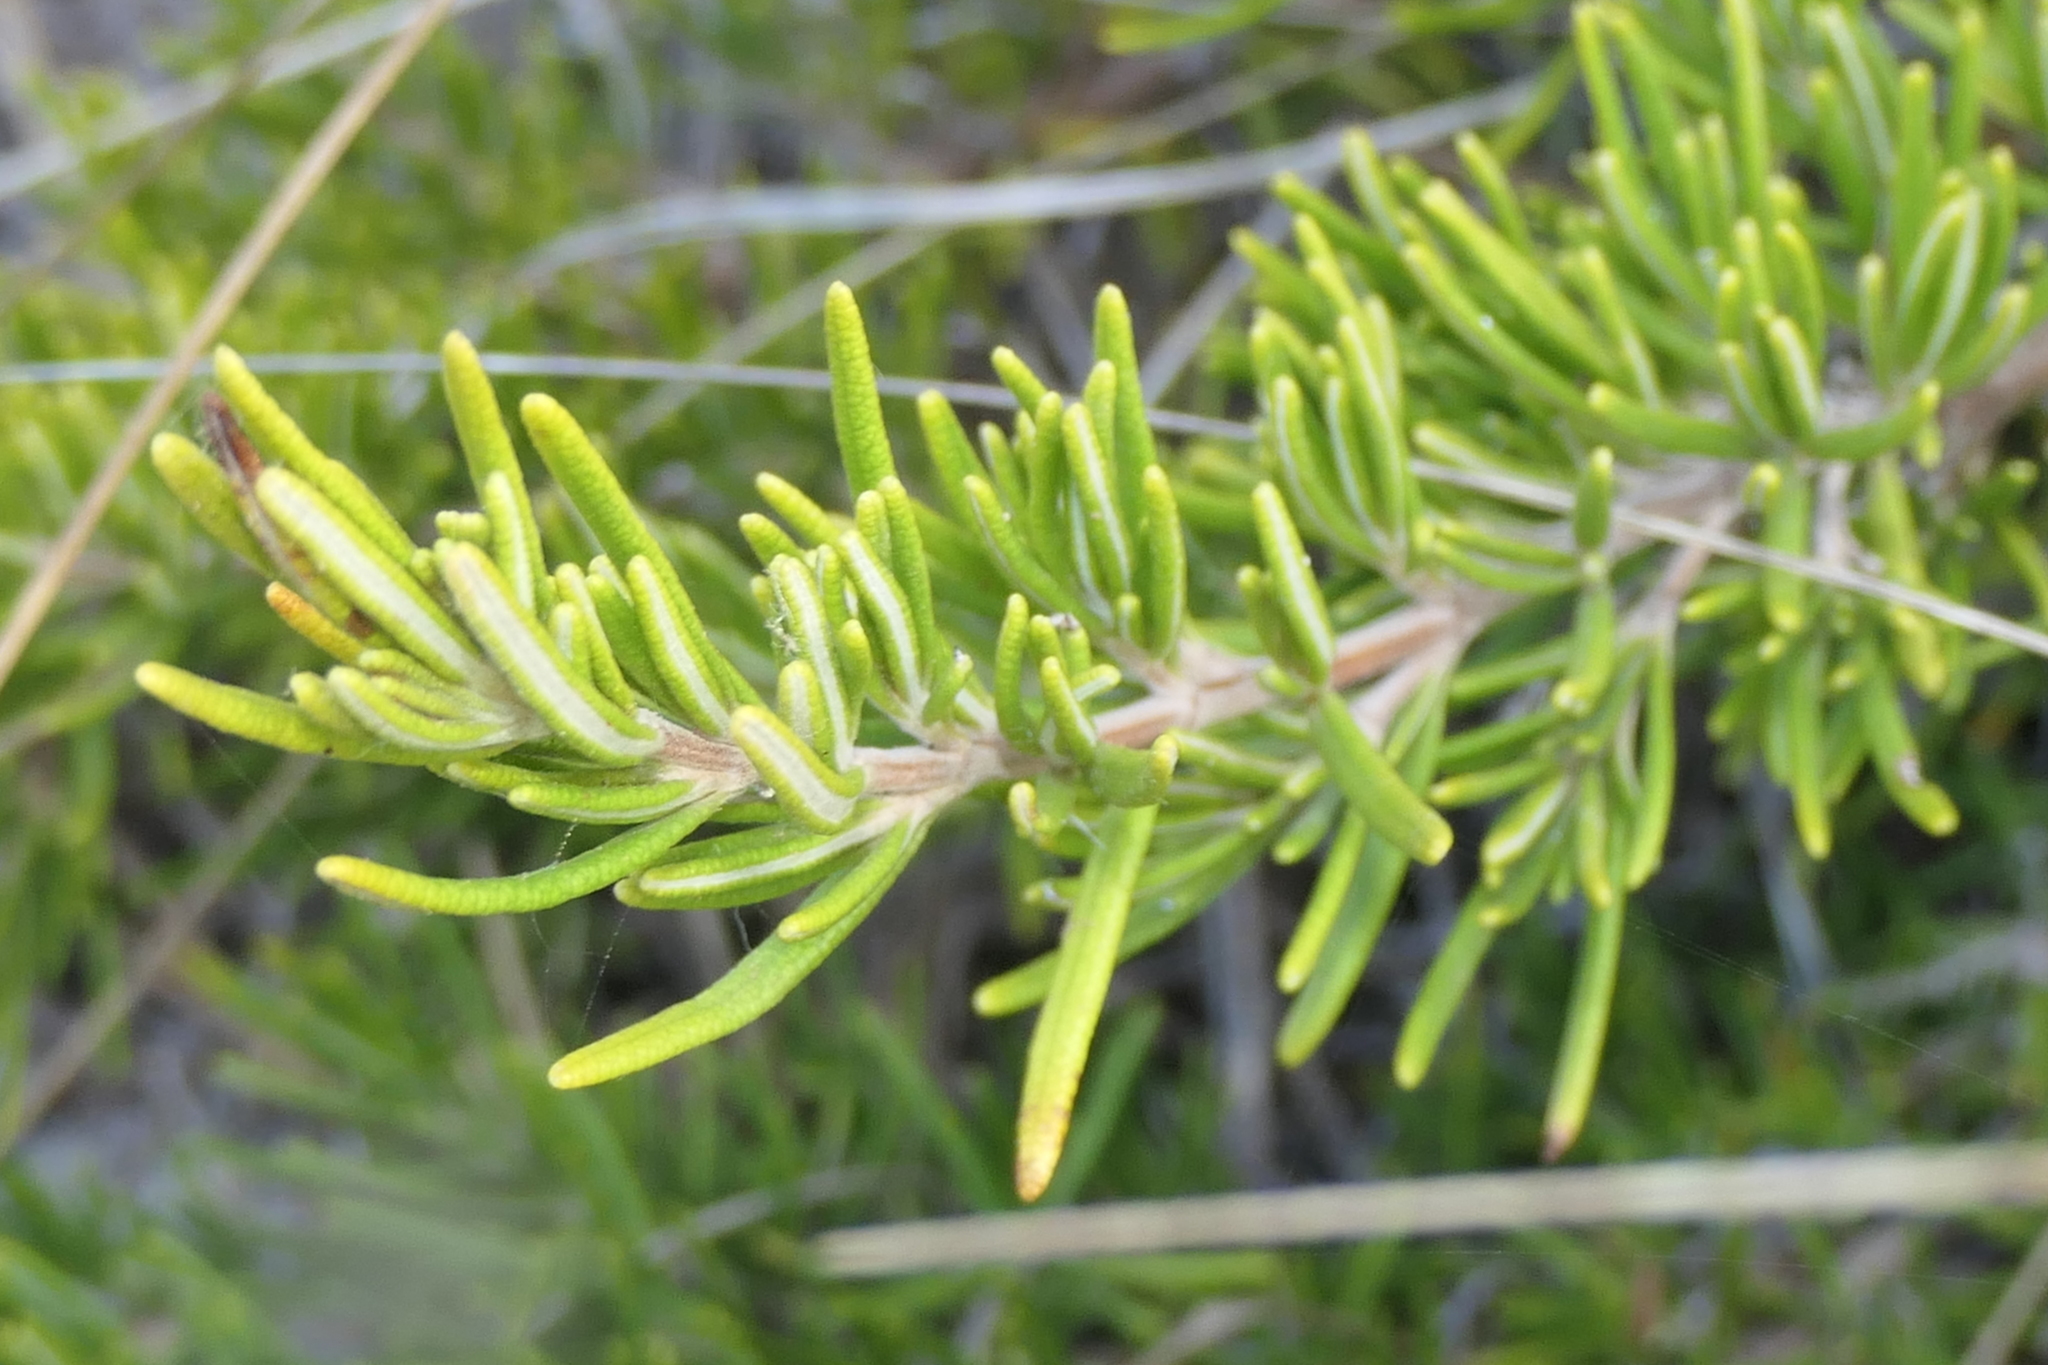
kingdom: Plantae
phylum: Tracheophyta
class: Magnoliopsida
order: Lamiales
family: Lamiaceae
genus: Salvia
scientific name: Salvia rosmarinus
